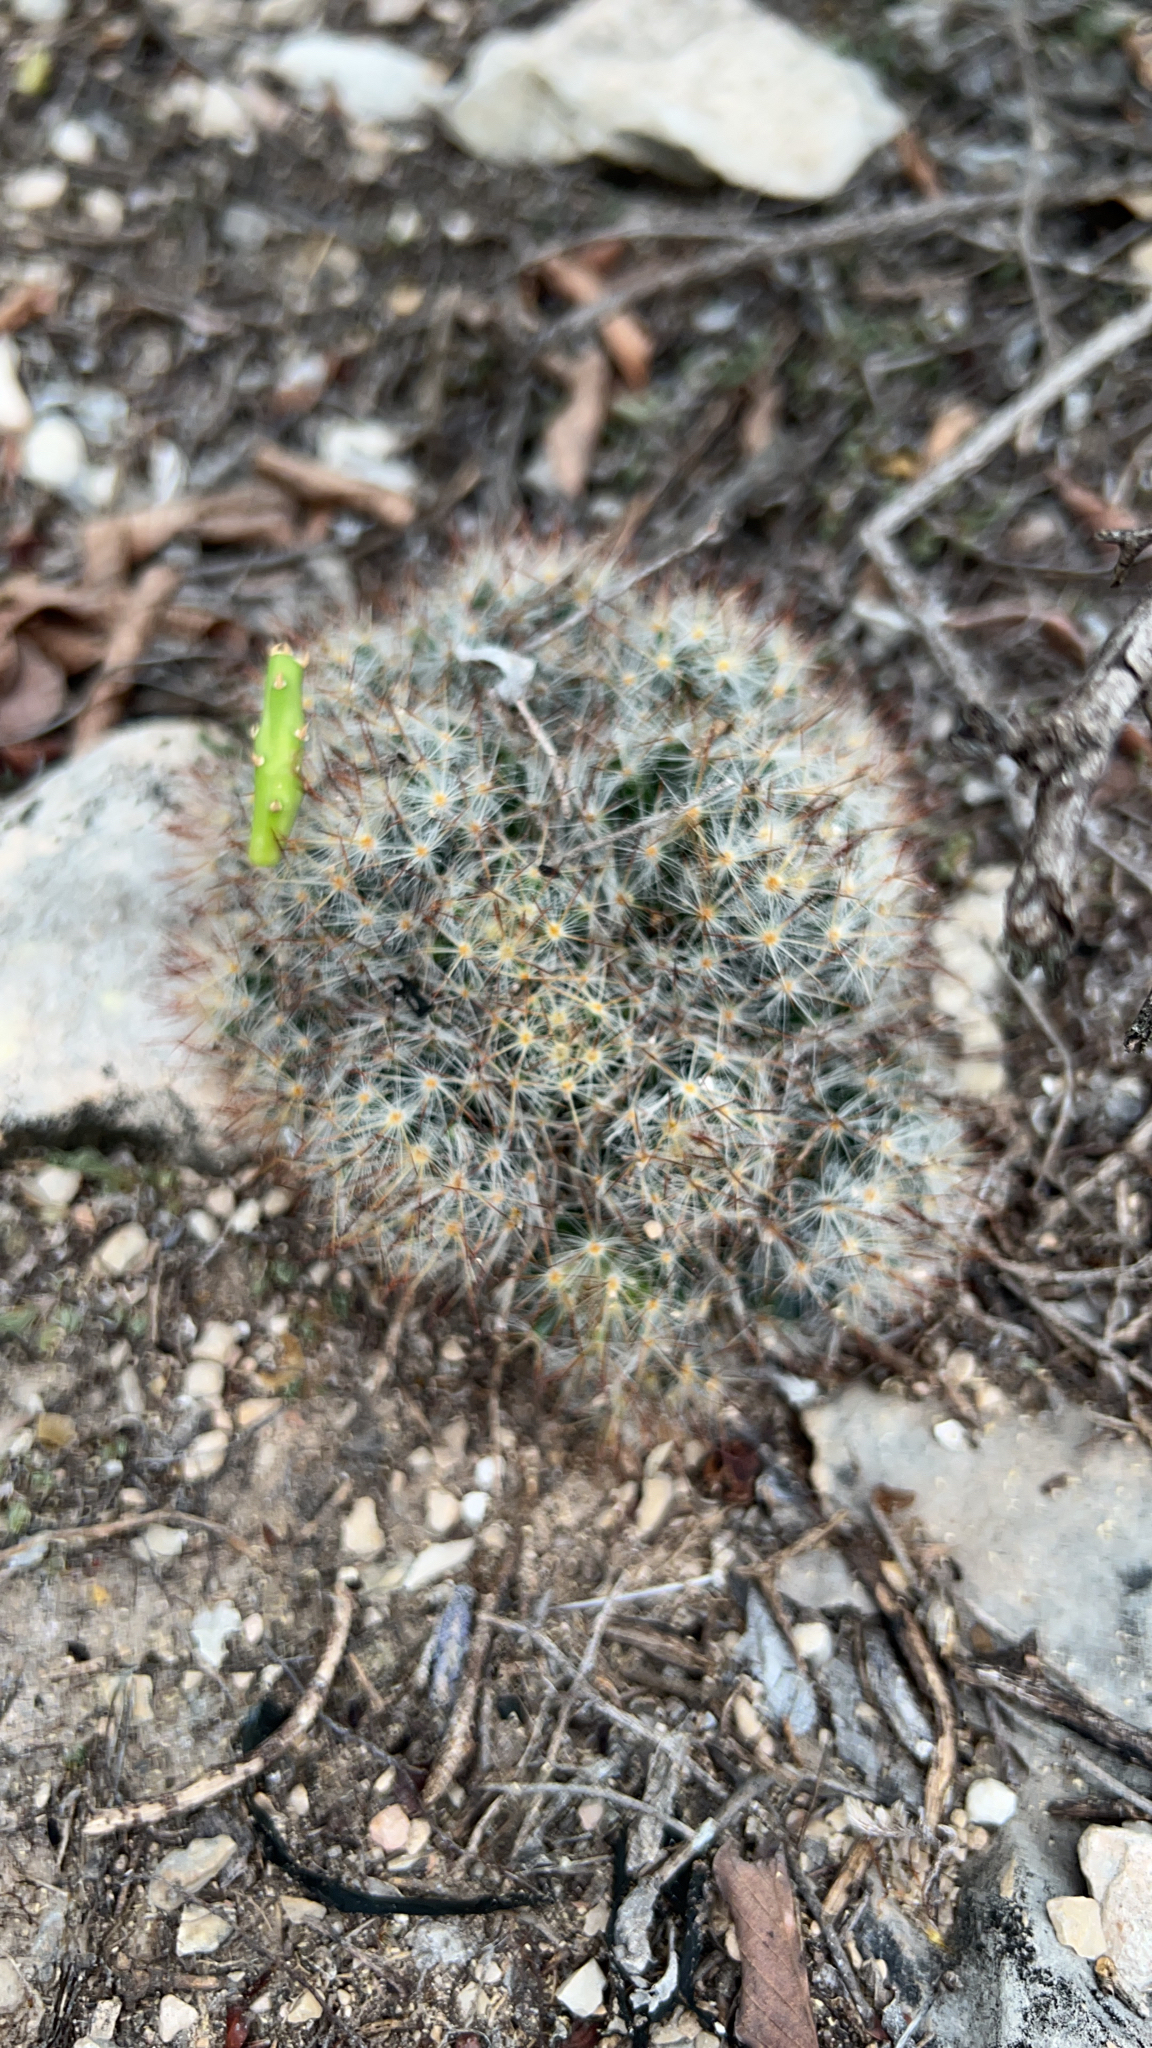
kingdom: Plantae
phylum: Tracheophyta
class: Magnoliopsida
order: Caryophyllales
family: Cactaceae
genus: Mammillaria
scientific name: Mammillaria prolifera
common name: Texas nipple cactus
